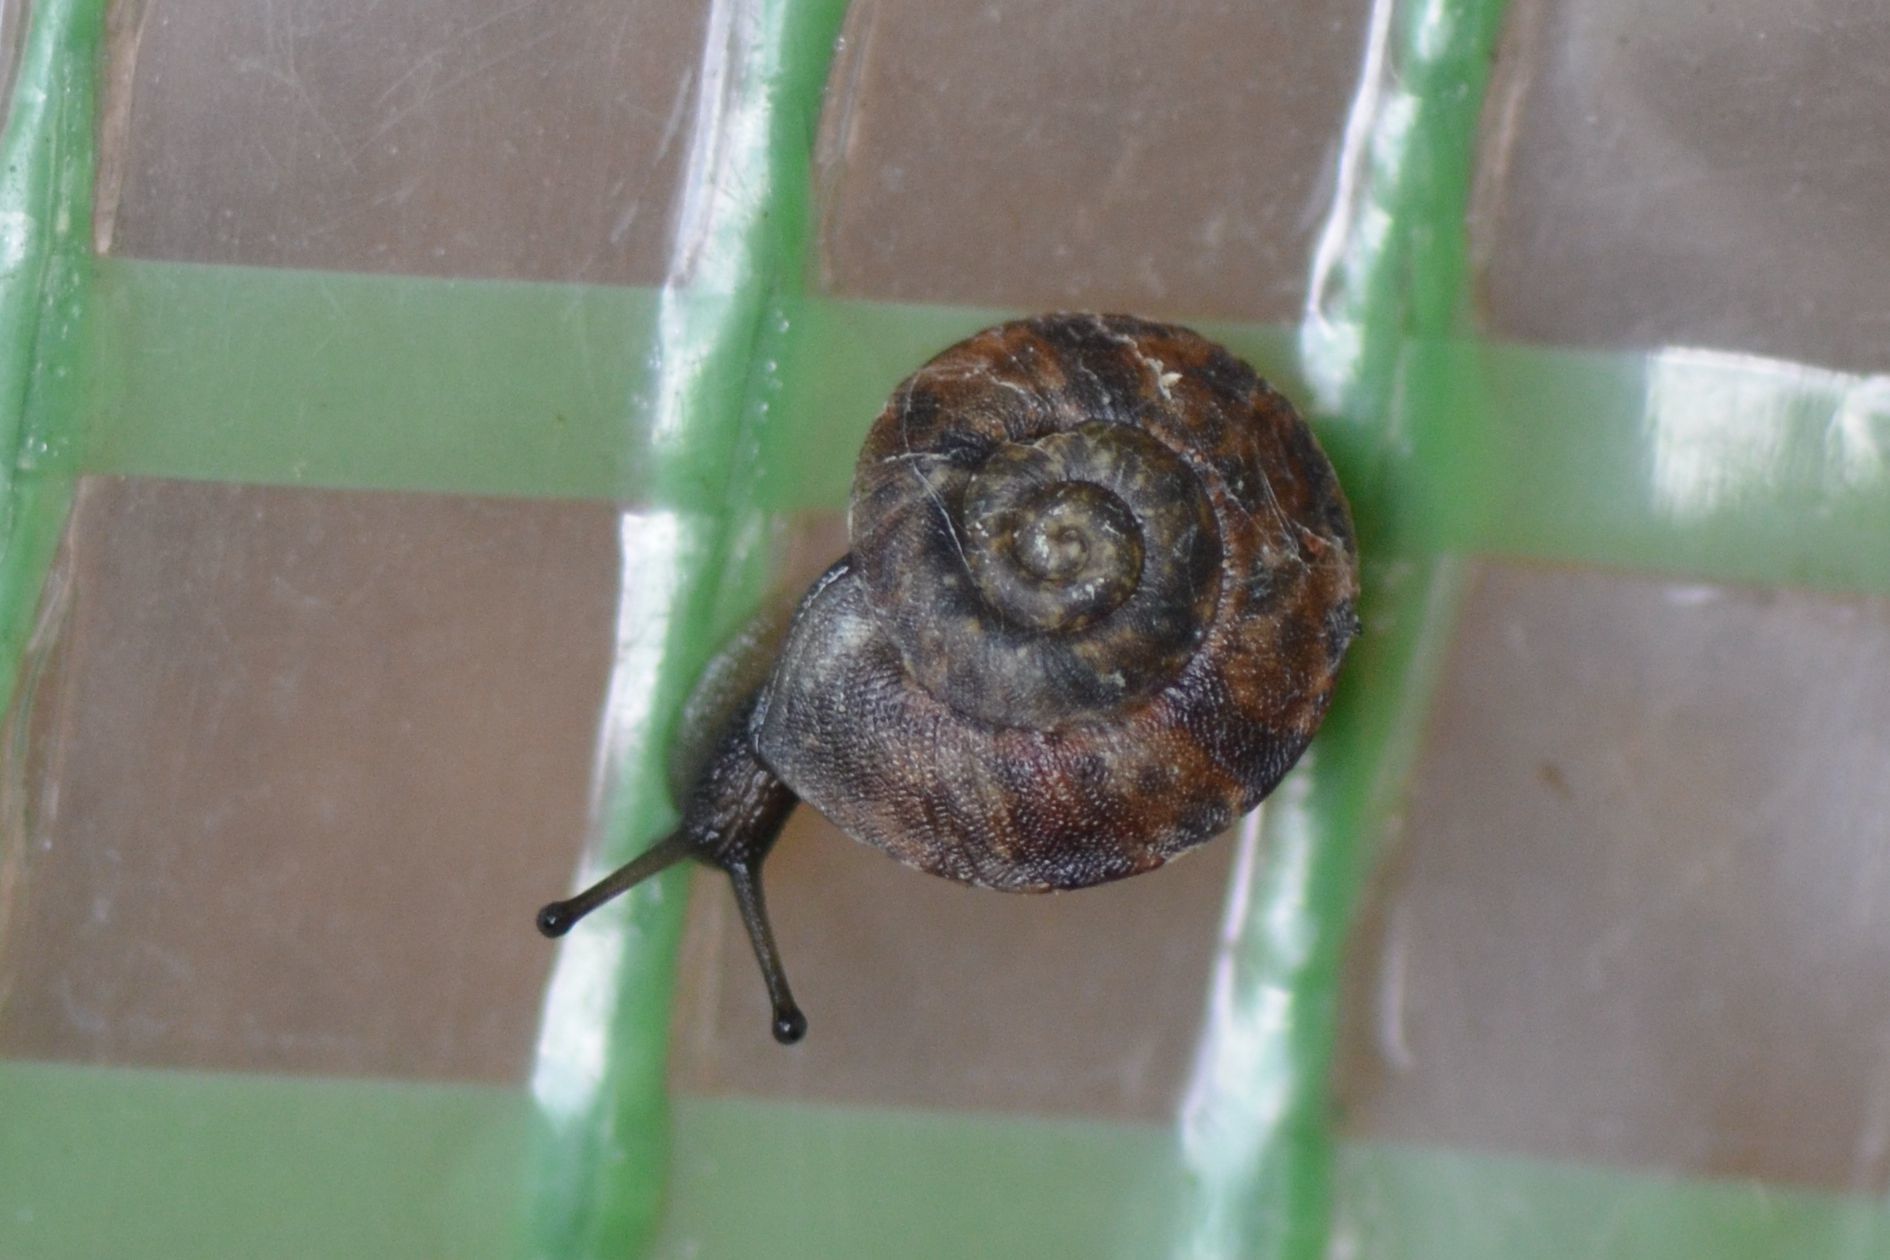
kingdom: Animalia
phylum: Mollusca
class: Gastropoda
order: Stylommatophora
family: Helicidae
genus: Helicigona
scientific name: Helicigona lapicida
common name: Lapidary snail
